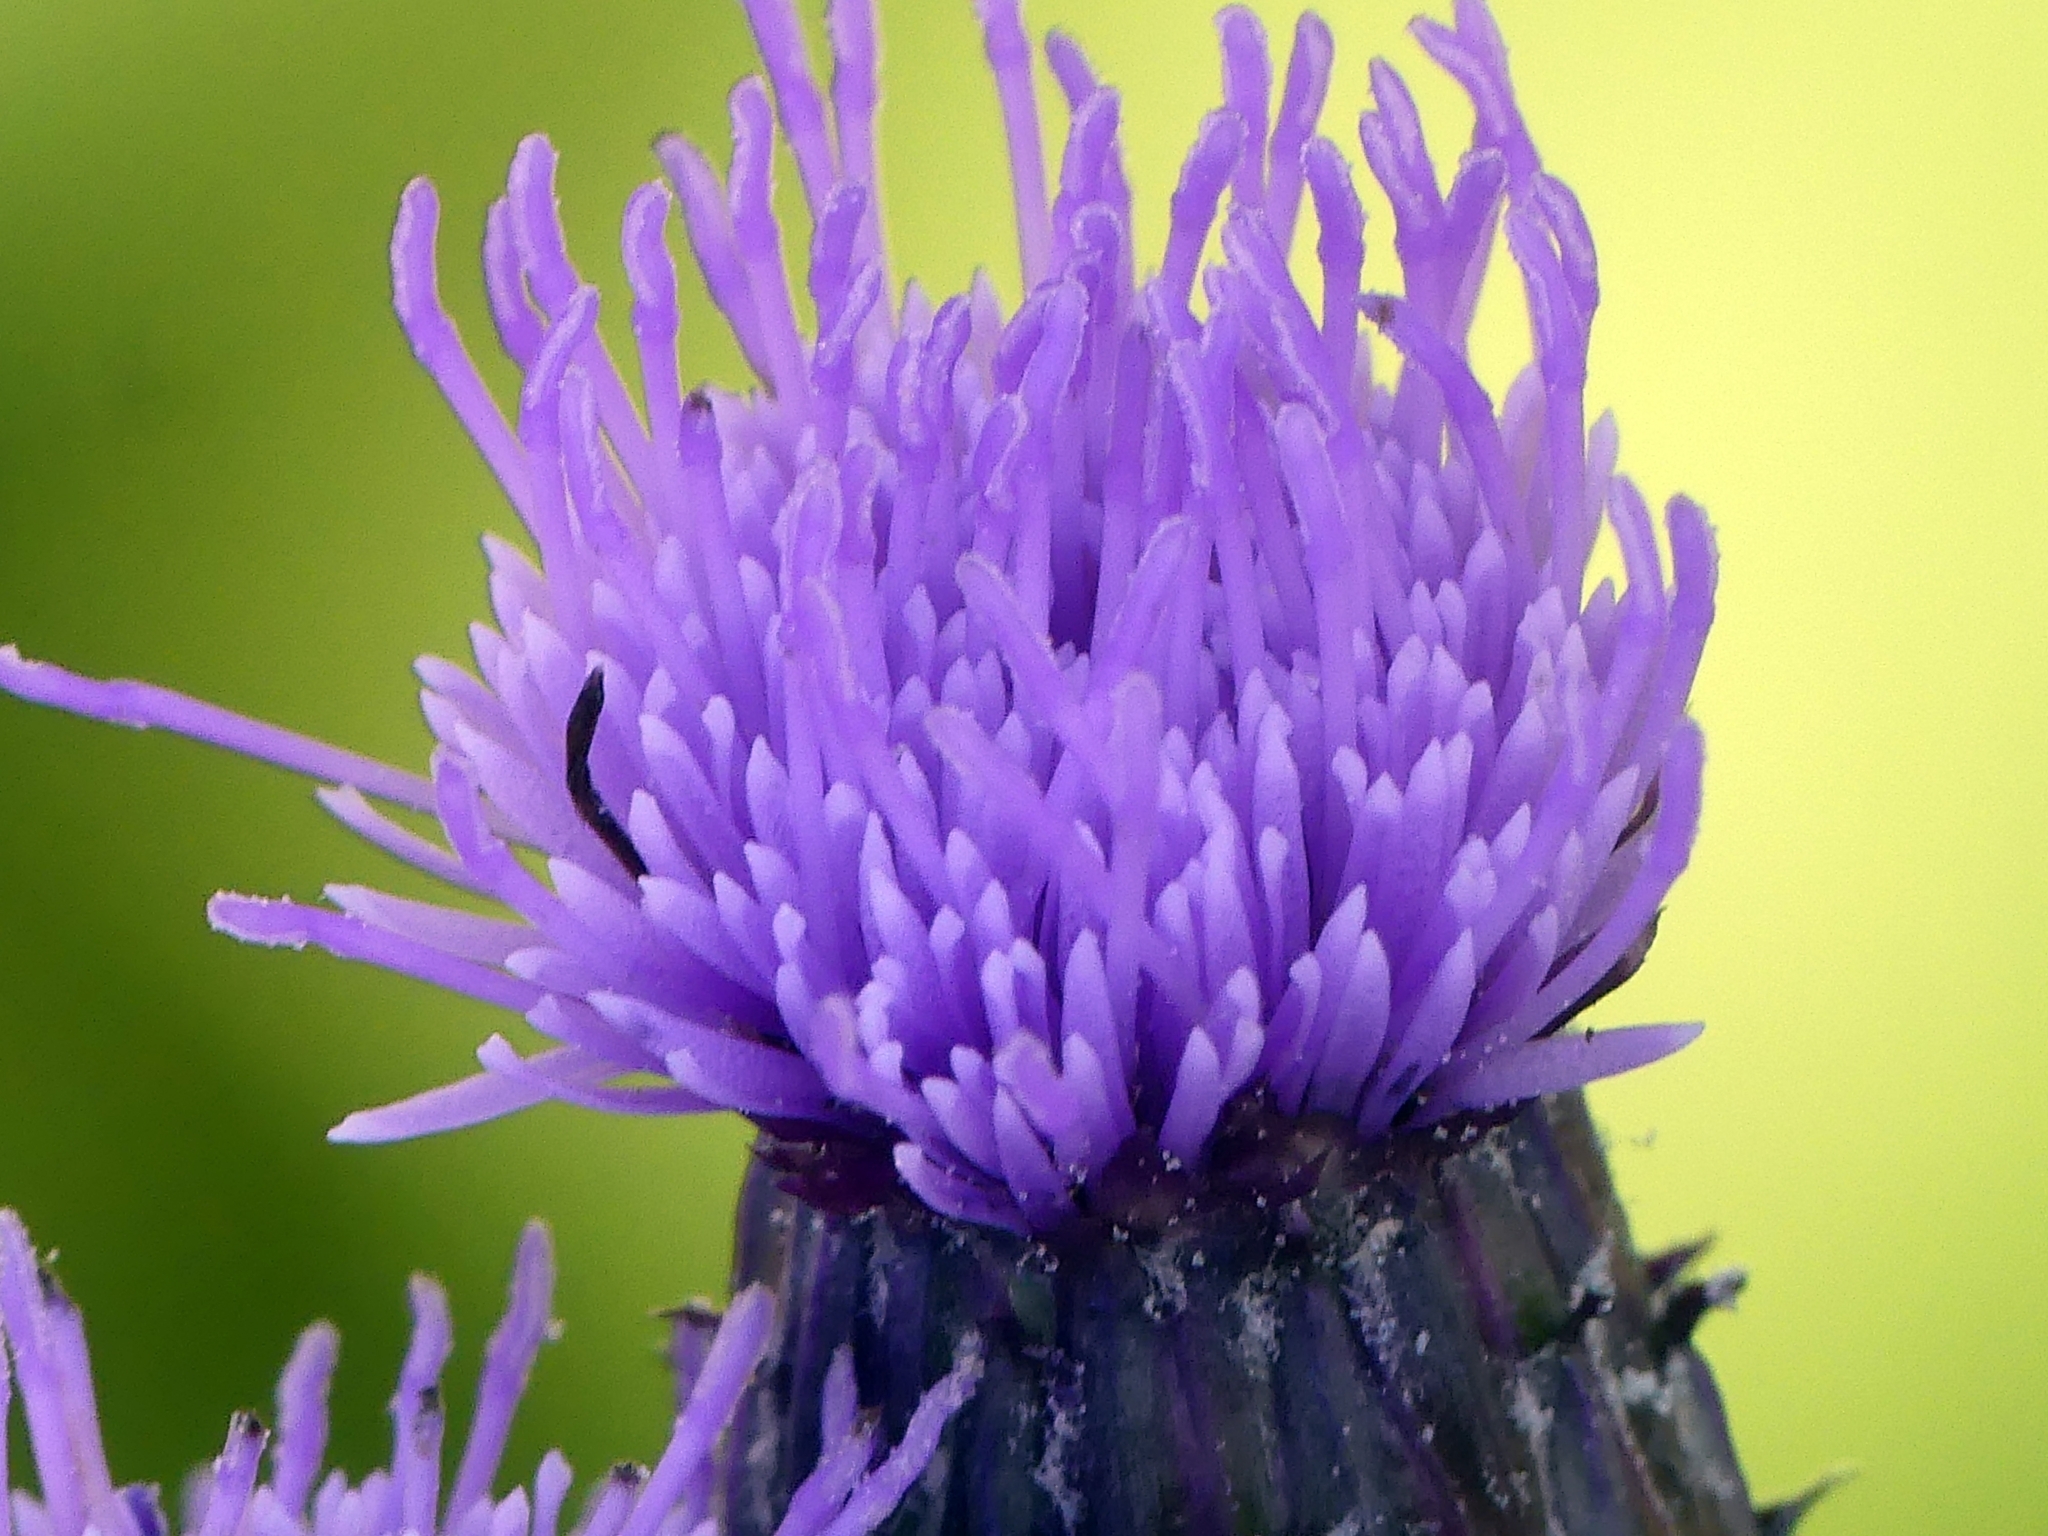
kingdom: Plantae
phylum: Tracheophyta
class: Magnoliopsida
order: Asterales
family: Asteraceae
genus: Cirsium
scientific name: Cirsium arvense
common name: Creeping thistle
